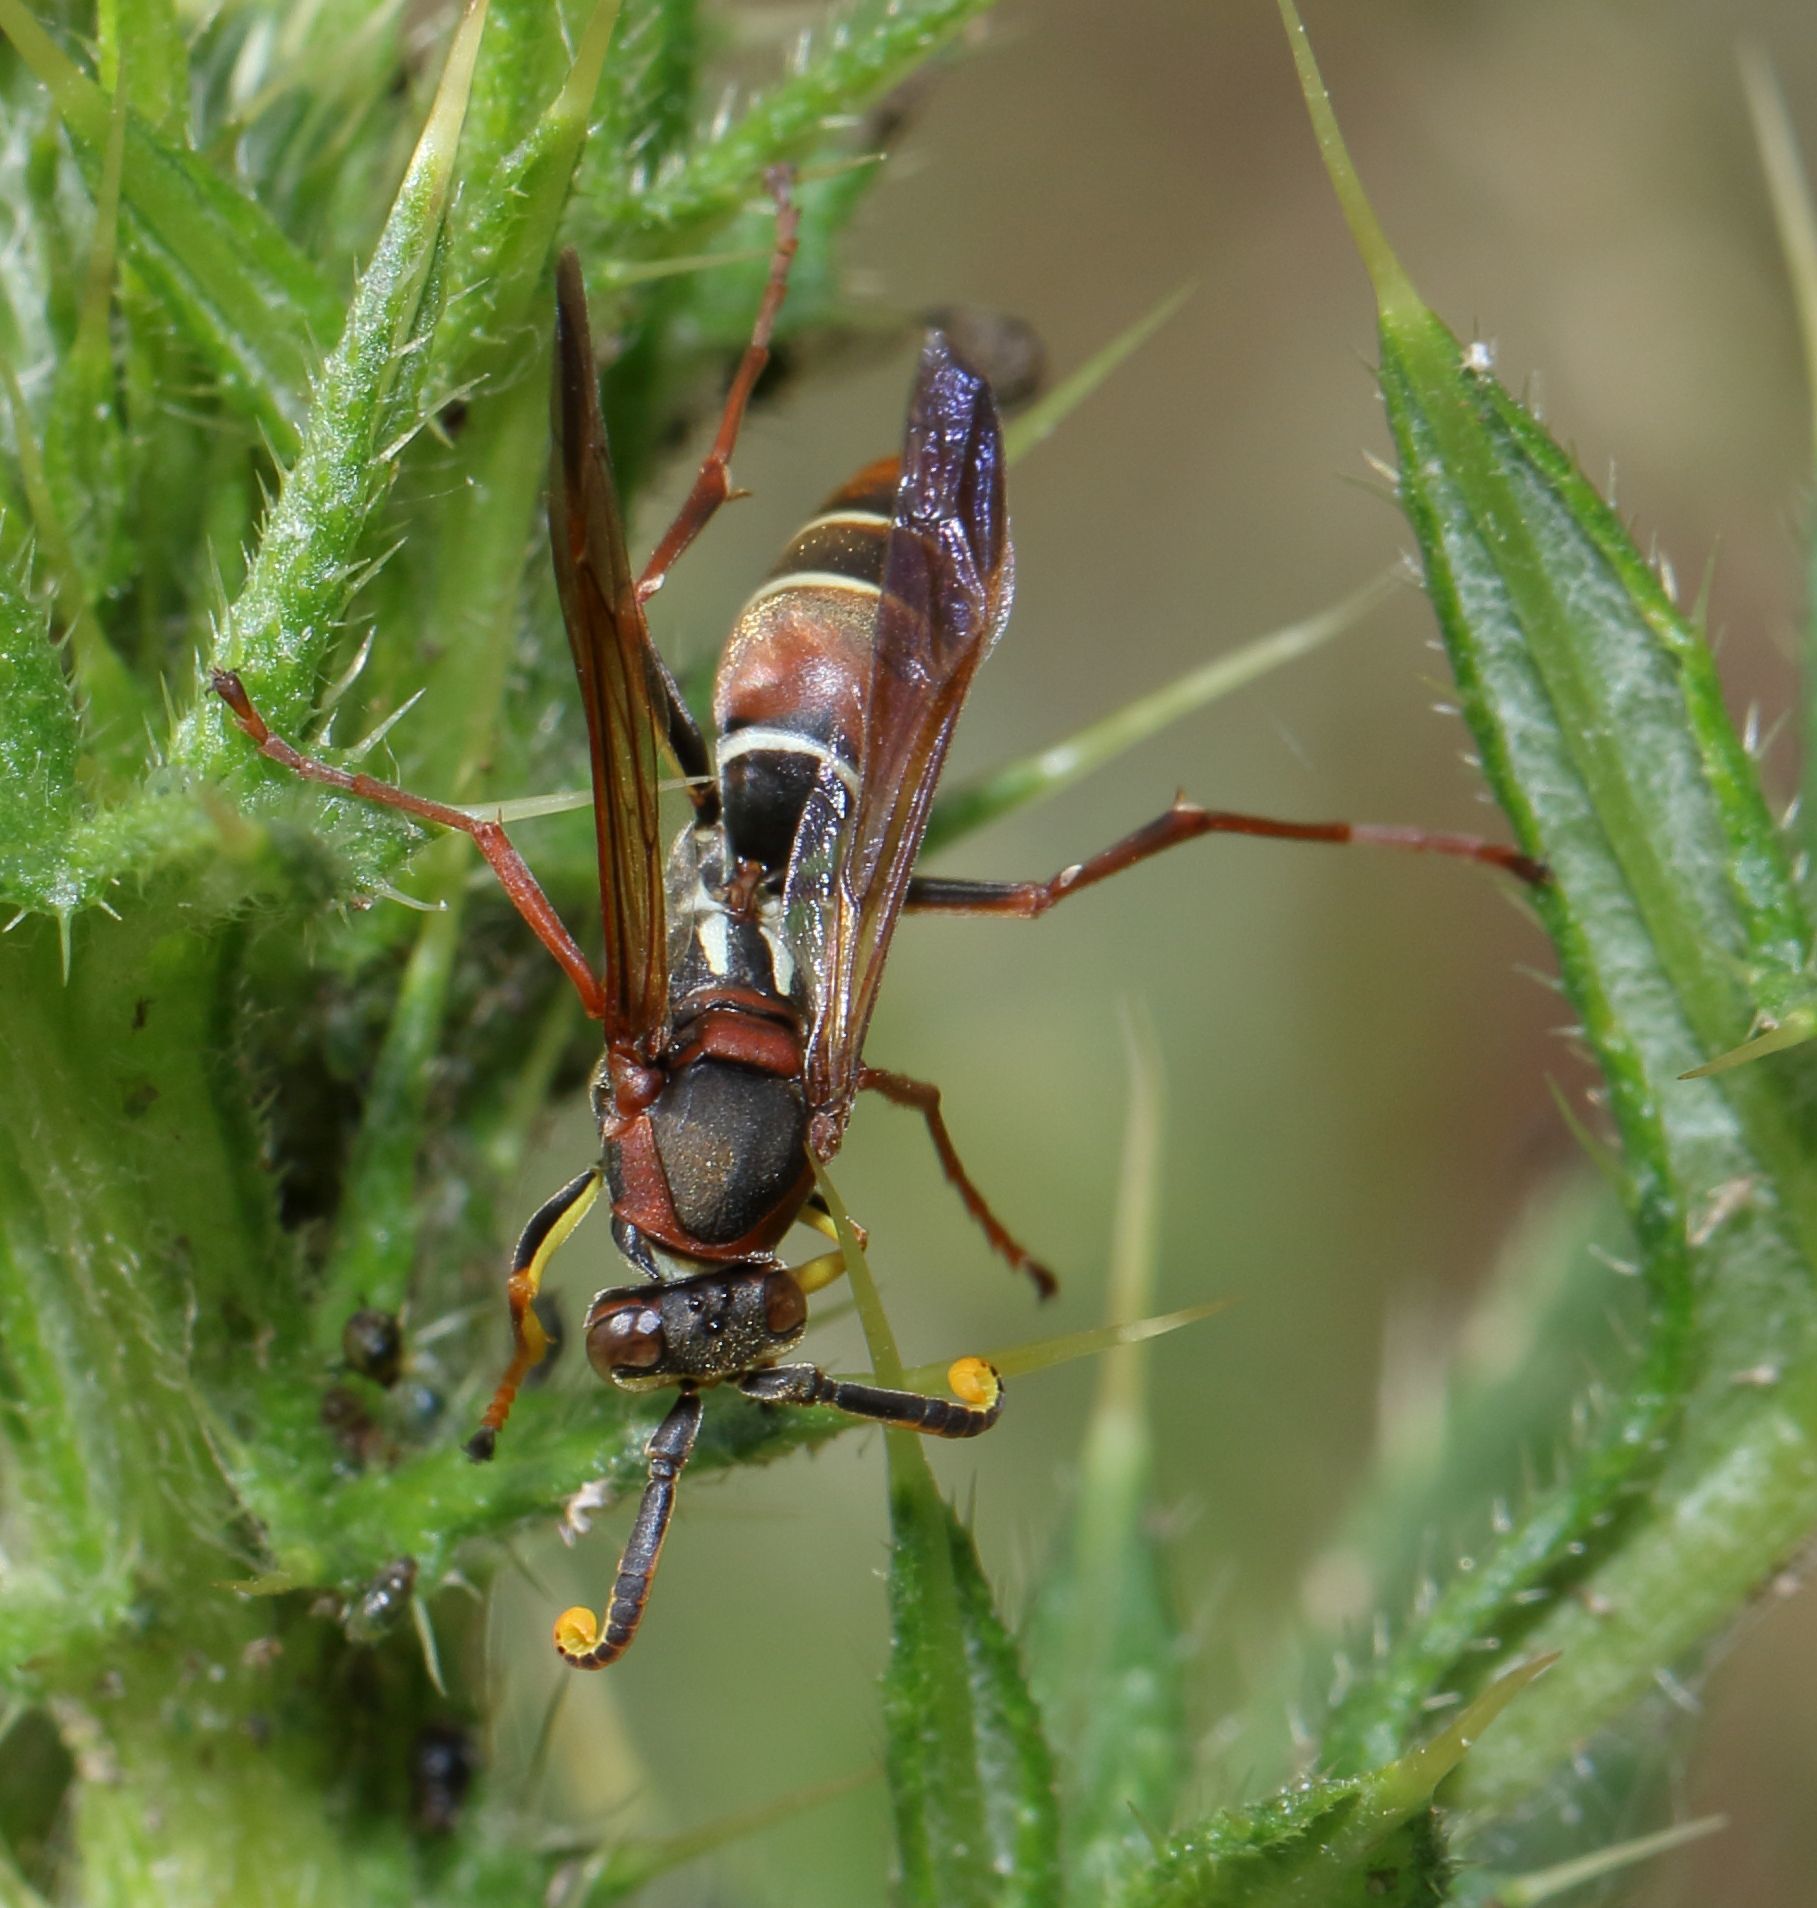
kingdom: Animalia
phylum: Arthropoda
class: Insecta
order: Hymenoptera
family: Eumenidae
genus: Polistes
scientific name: Polistes marginalis
